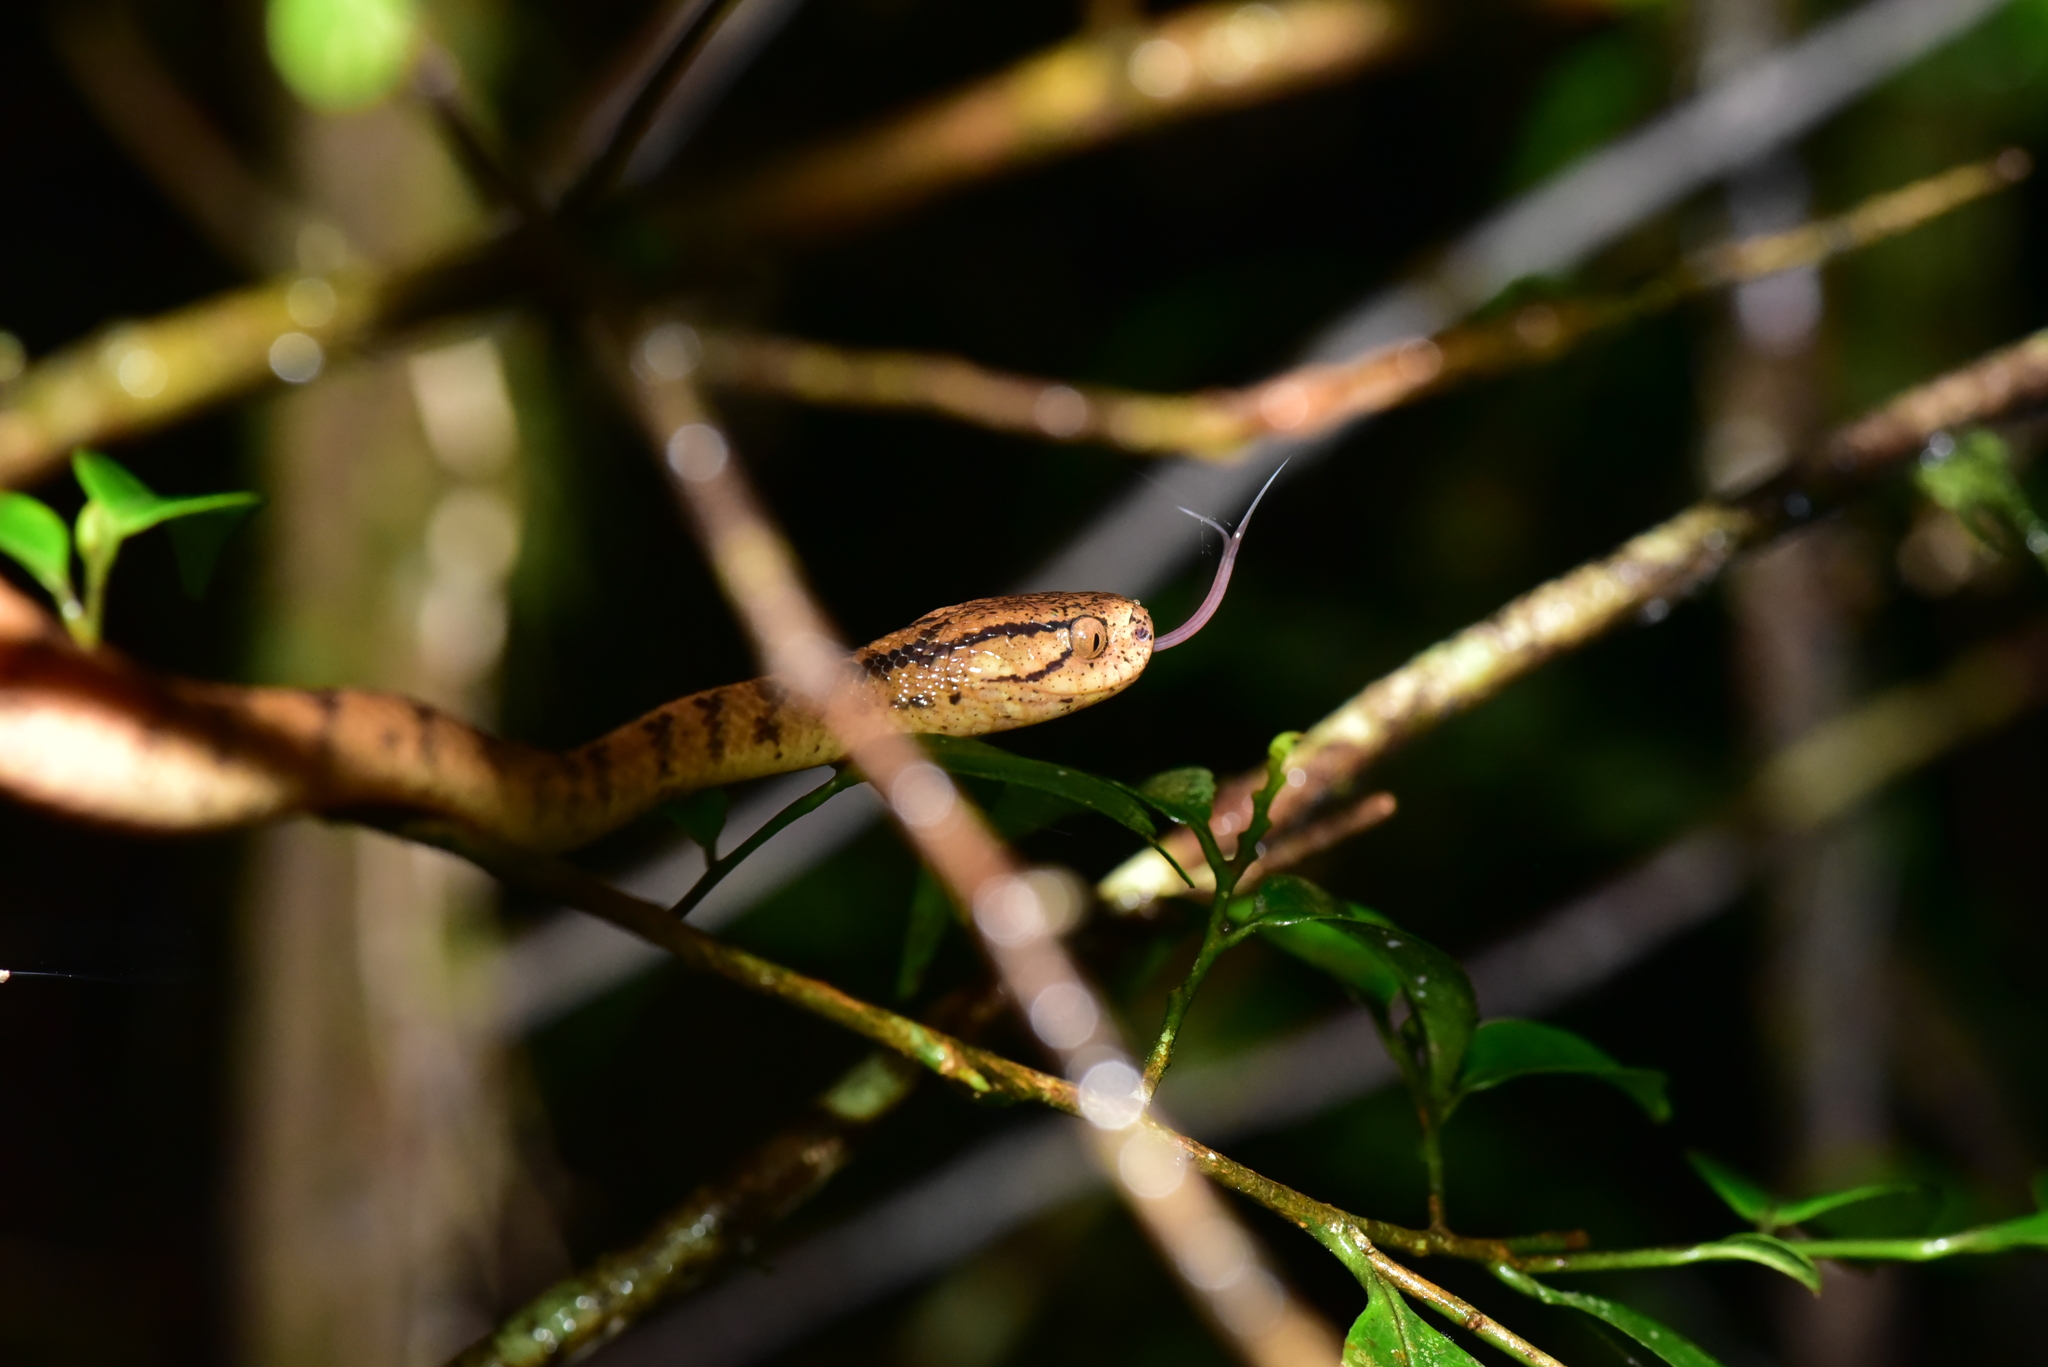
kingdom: Animalia
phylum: Chordata
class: Squamata
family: Pareidae
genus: Pareas
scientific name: Pareas atayal
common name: Atayal slug-eating snake
